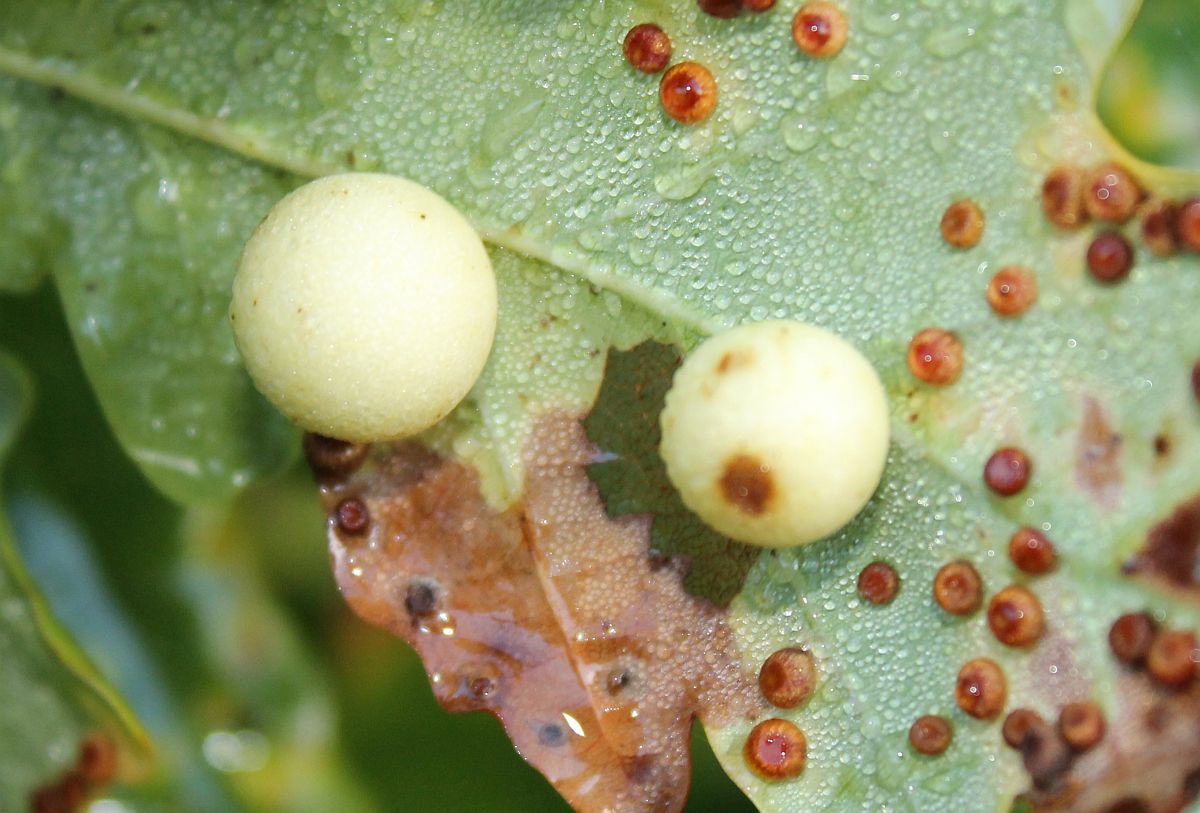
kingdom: Animalia
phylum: Arthropoda
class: Insecta
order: Hymenoptera
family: Cynipidae
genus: Cynips
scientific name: Cynips quercusfolii
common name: Cherry gall
